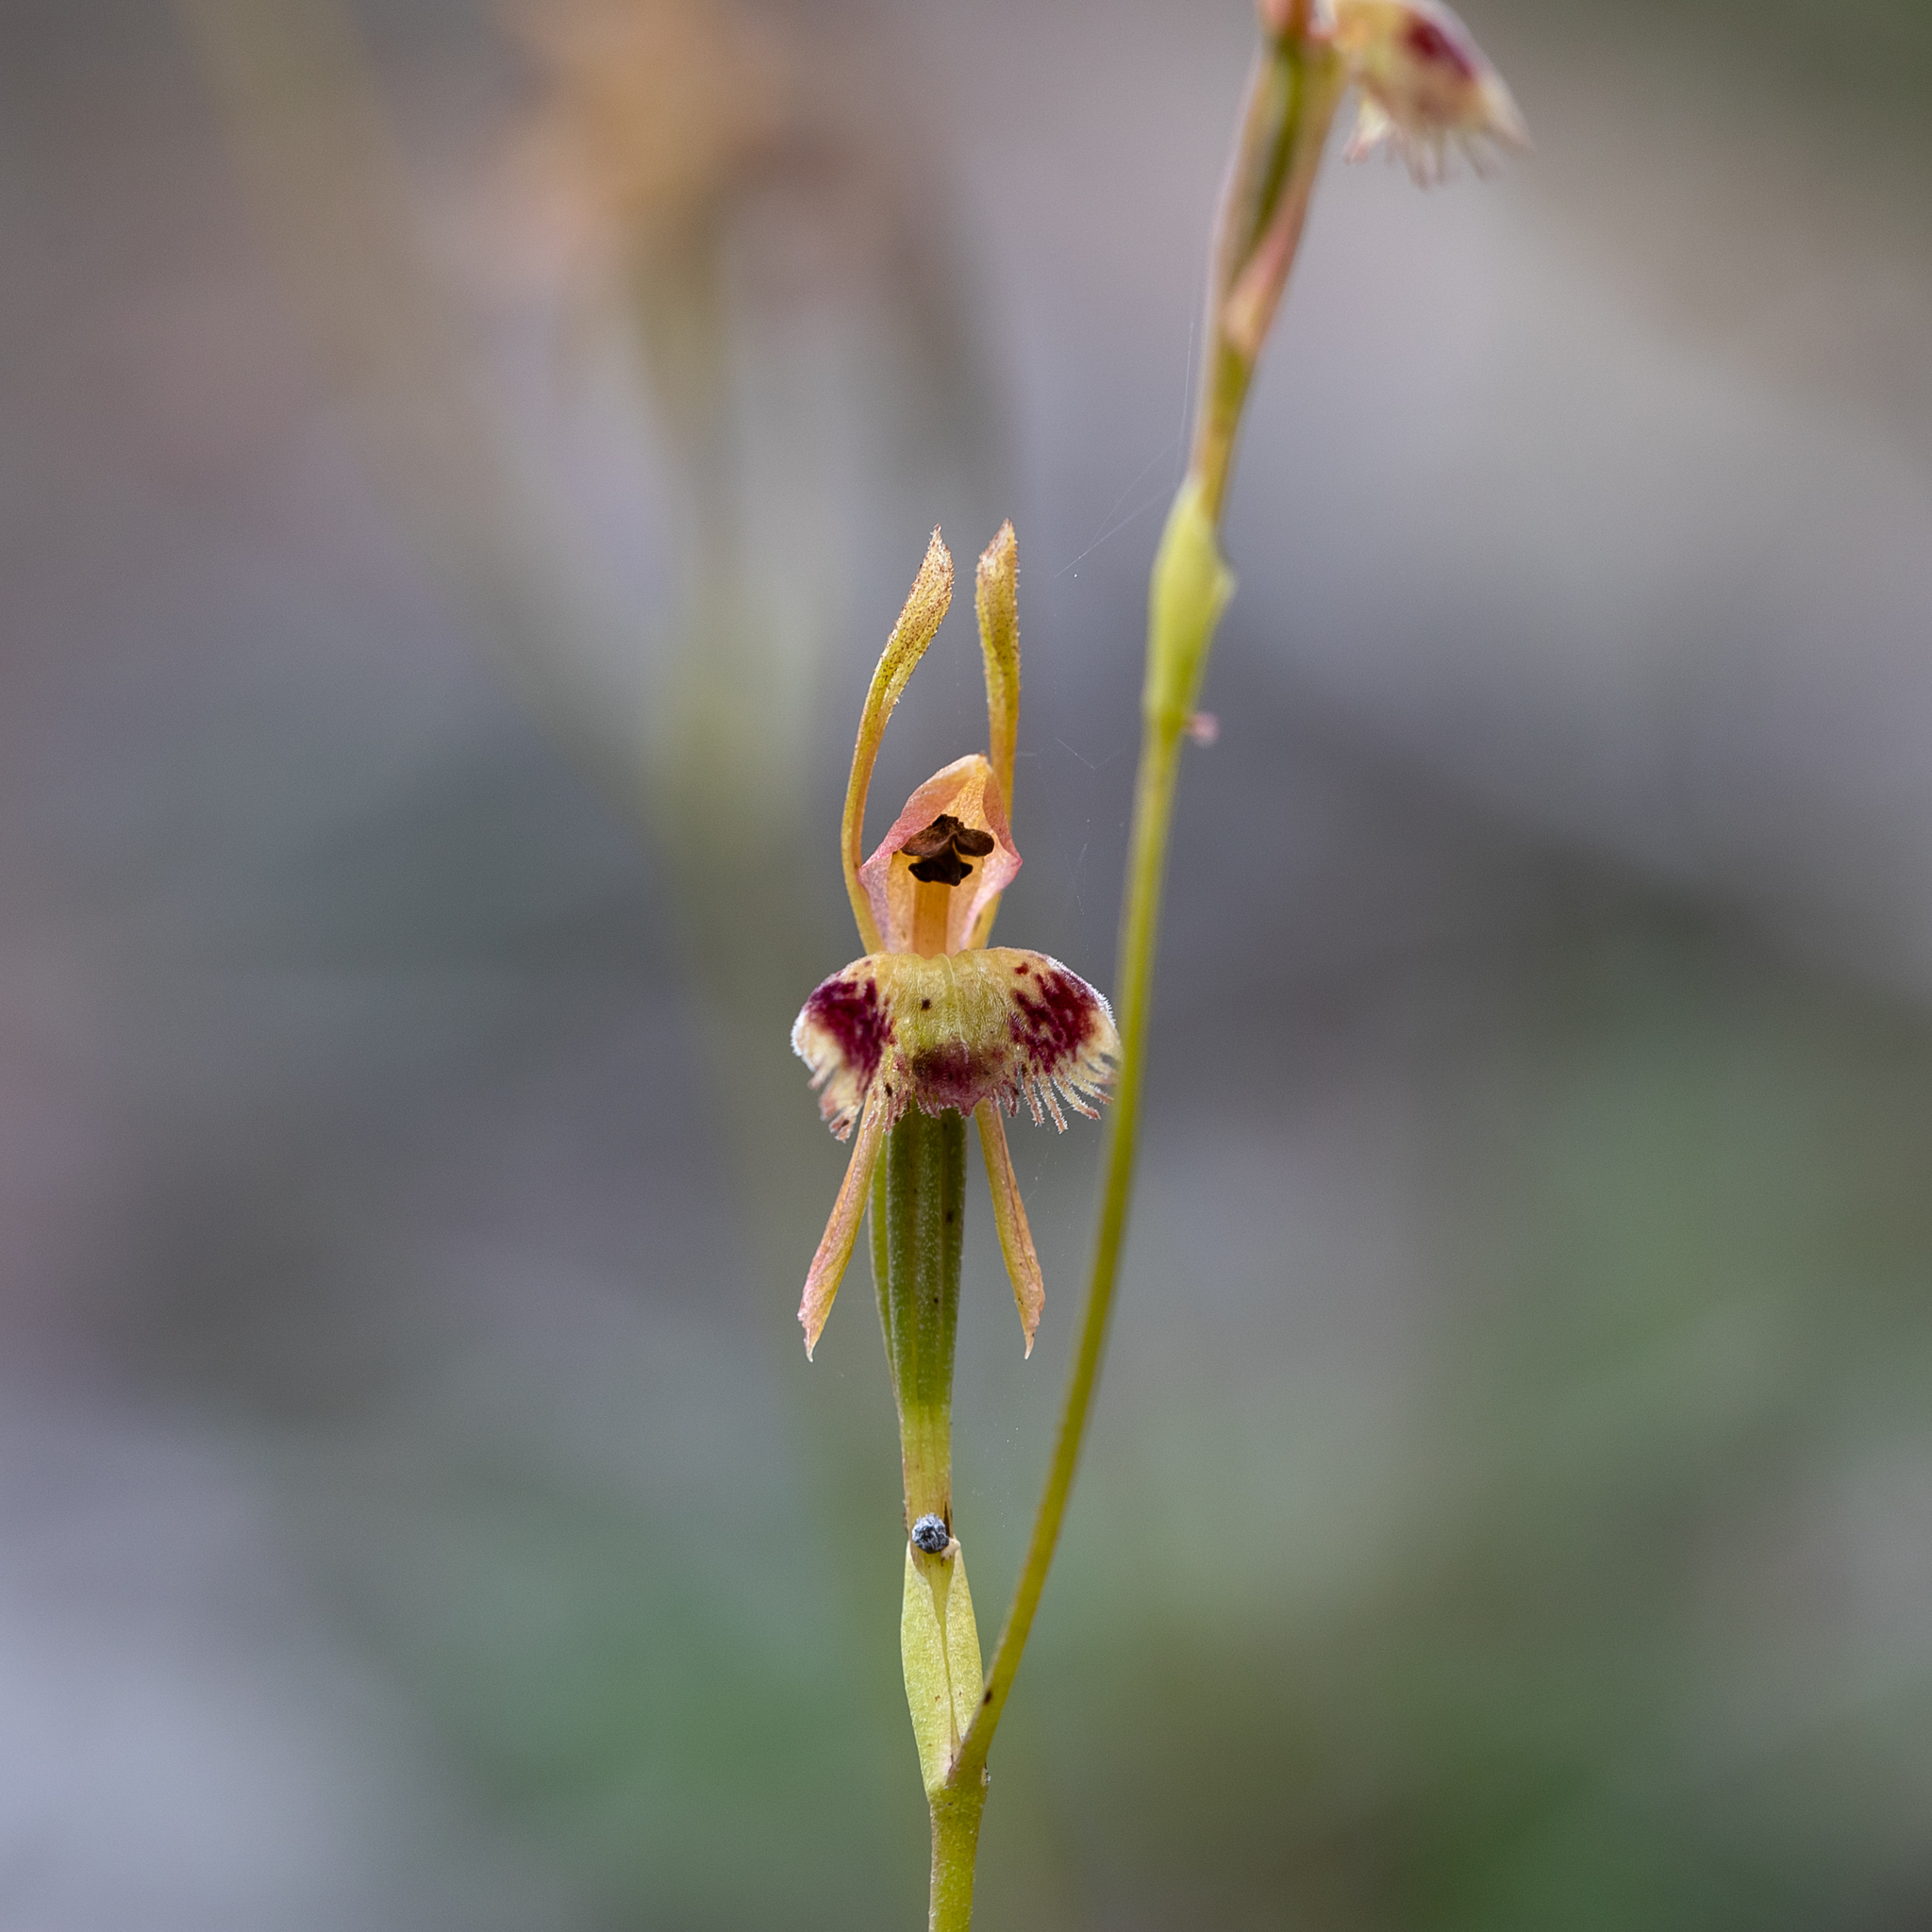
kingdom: Plantae
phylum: Tracheophyta
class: Liliopsida
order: Asparagales
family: Orchidaceae
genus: Leporella
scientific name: Leporella fimbriata
